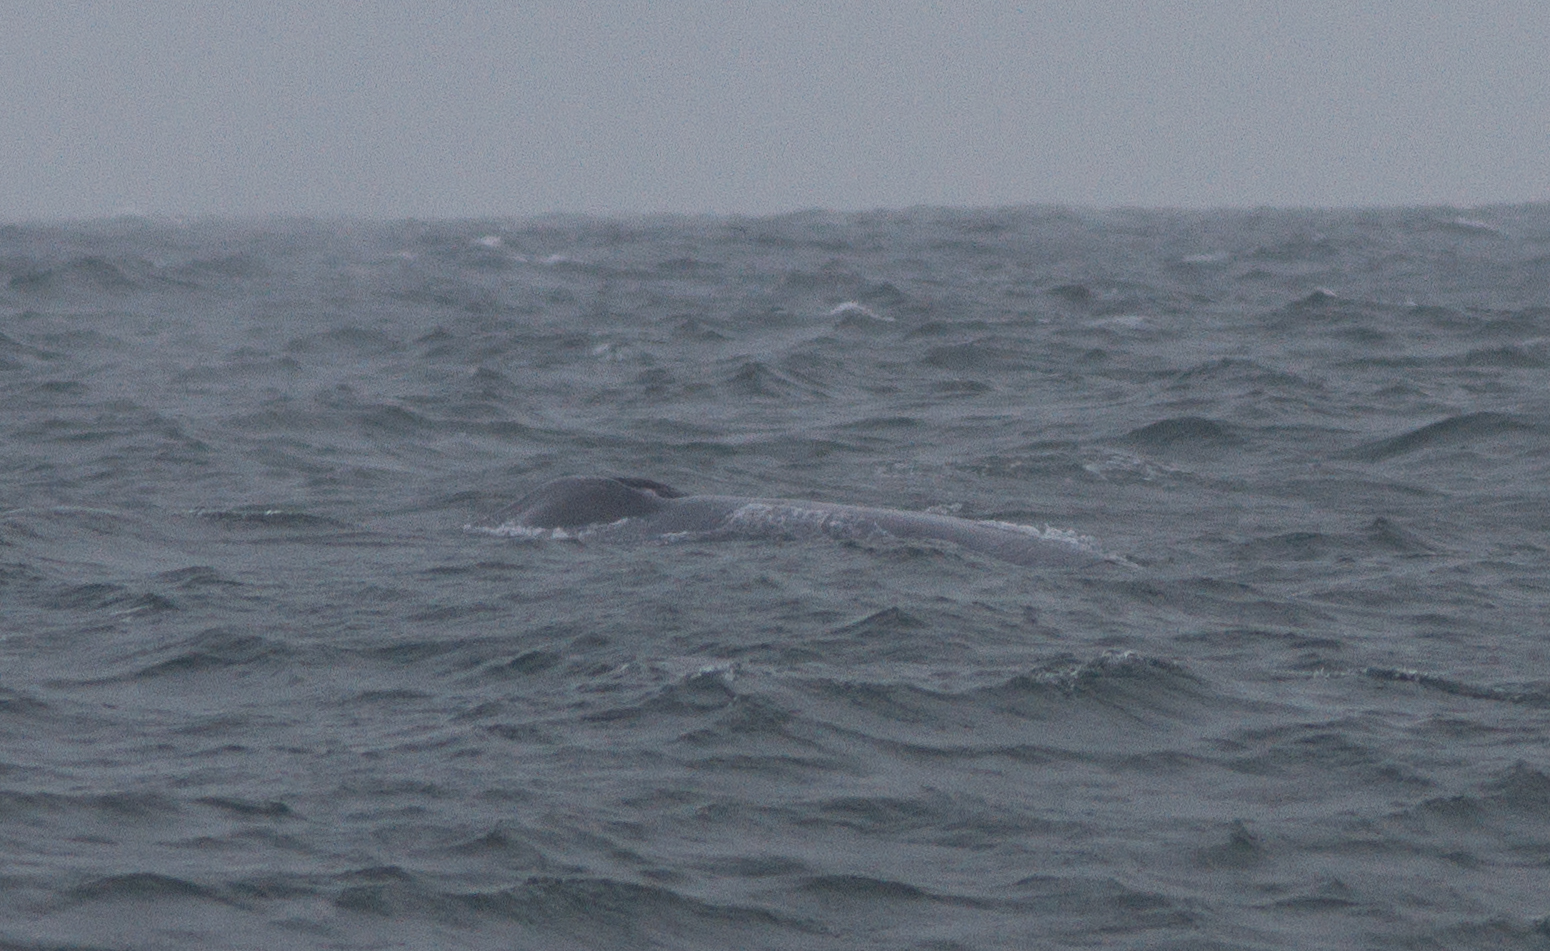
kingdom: Animalia
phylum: Chordata
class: Mammalia
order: Cetacea
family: Balaenopteridae
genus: Balaenoptera
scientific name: Balaenoptera musculus
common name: Blue whale
